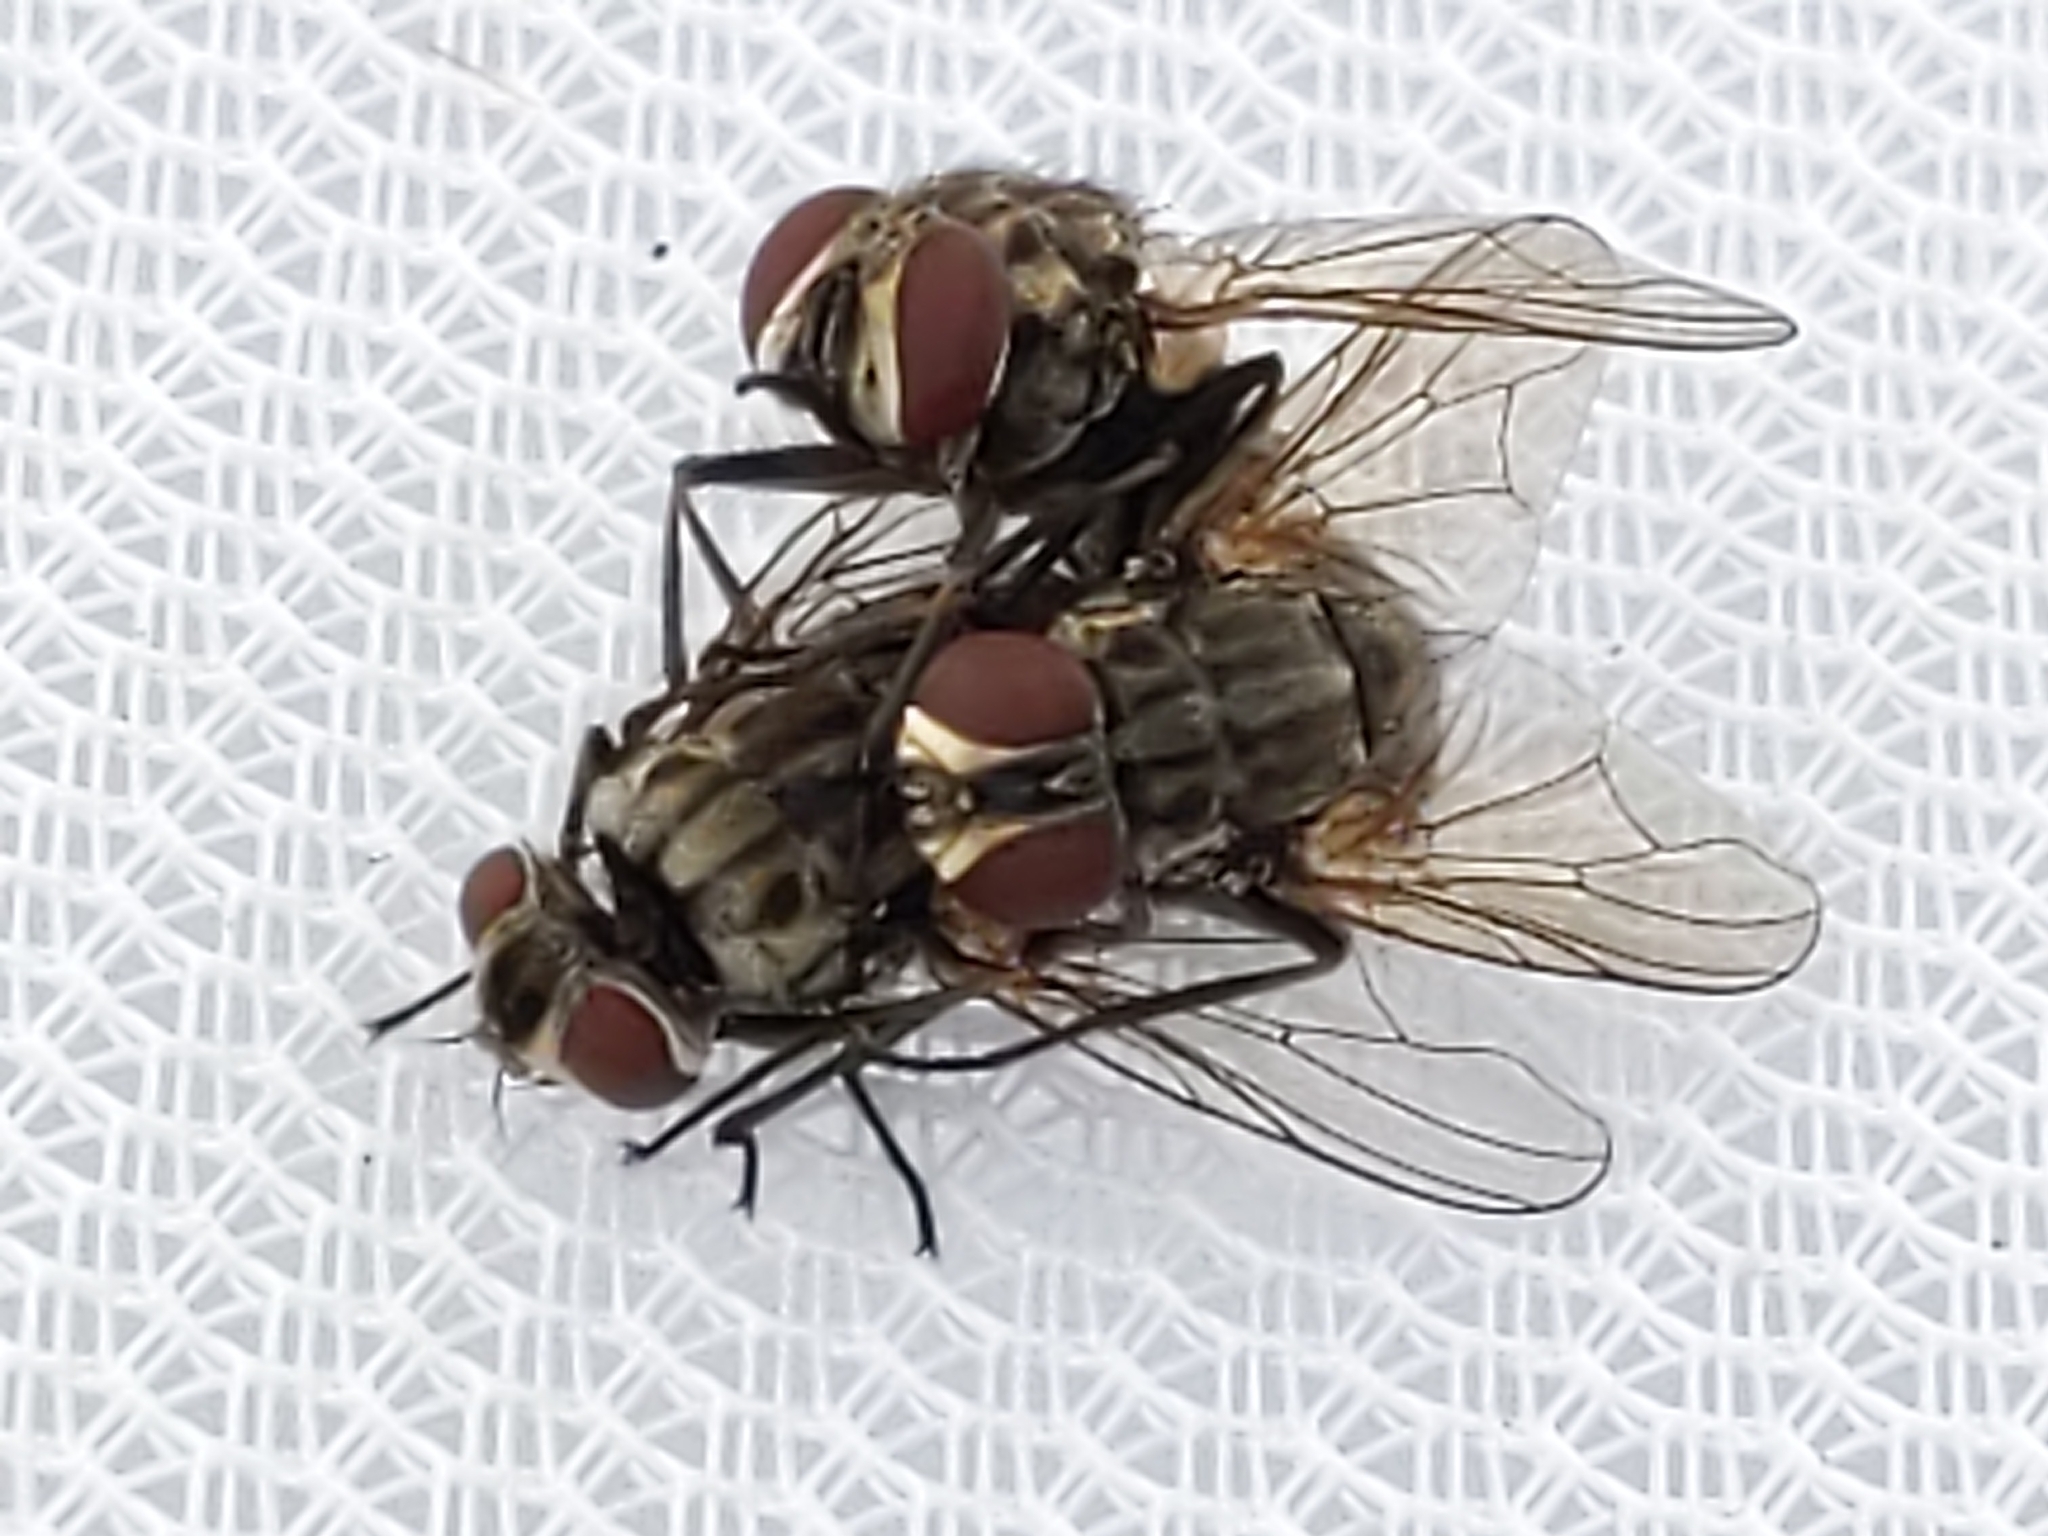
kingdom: Animalia
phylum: Arthropoda
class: Insecta
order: Diptera
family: Muscidae
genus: Stomoxys
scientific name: Stomoxys calcitrans
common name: Stable fly
